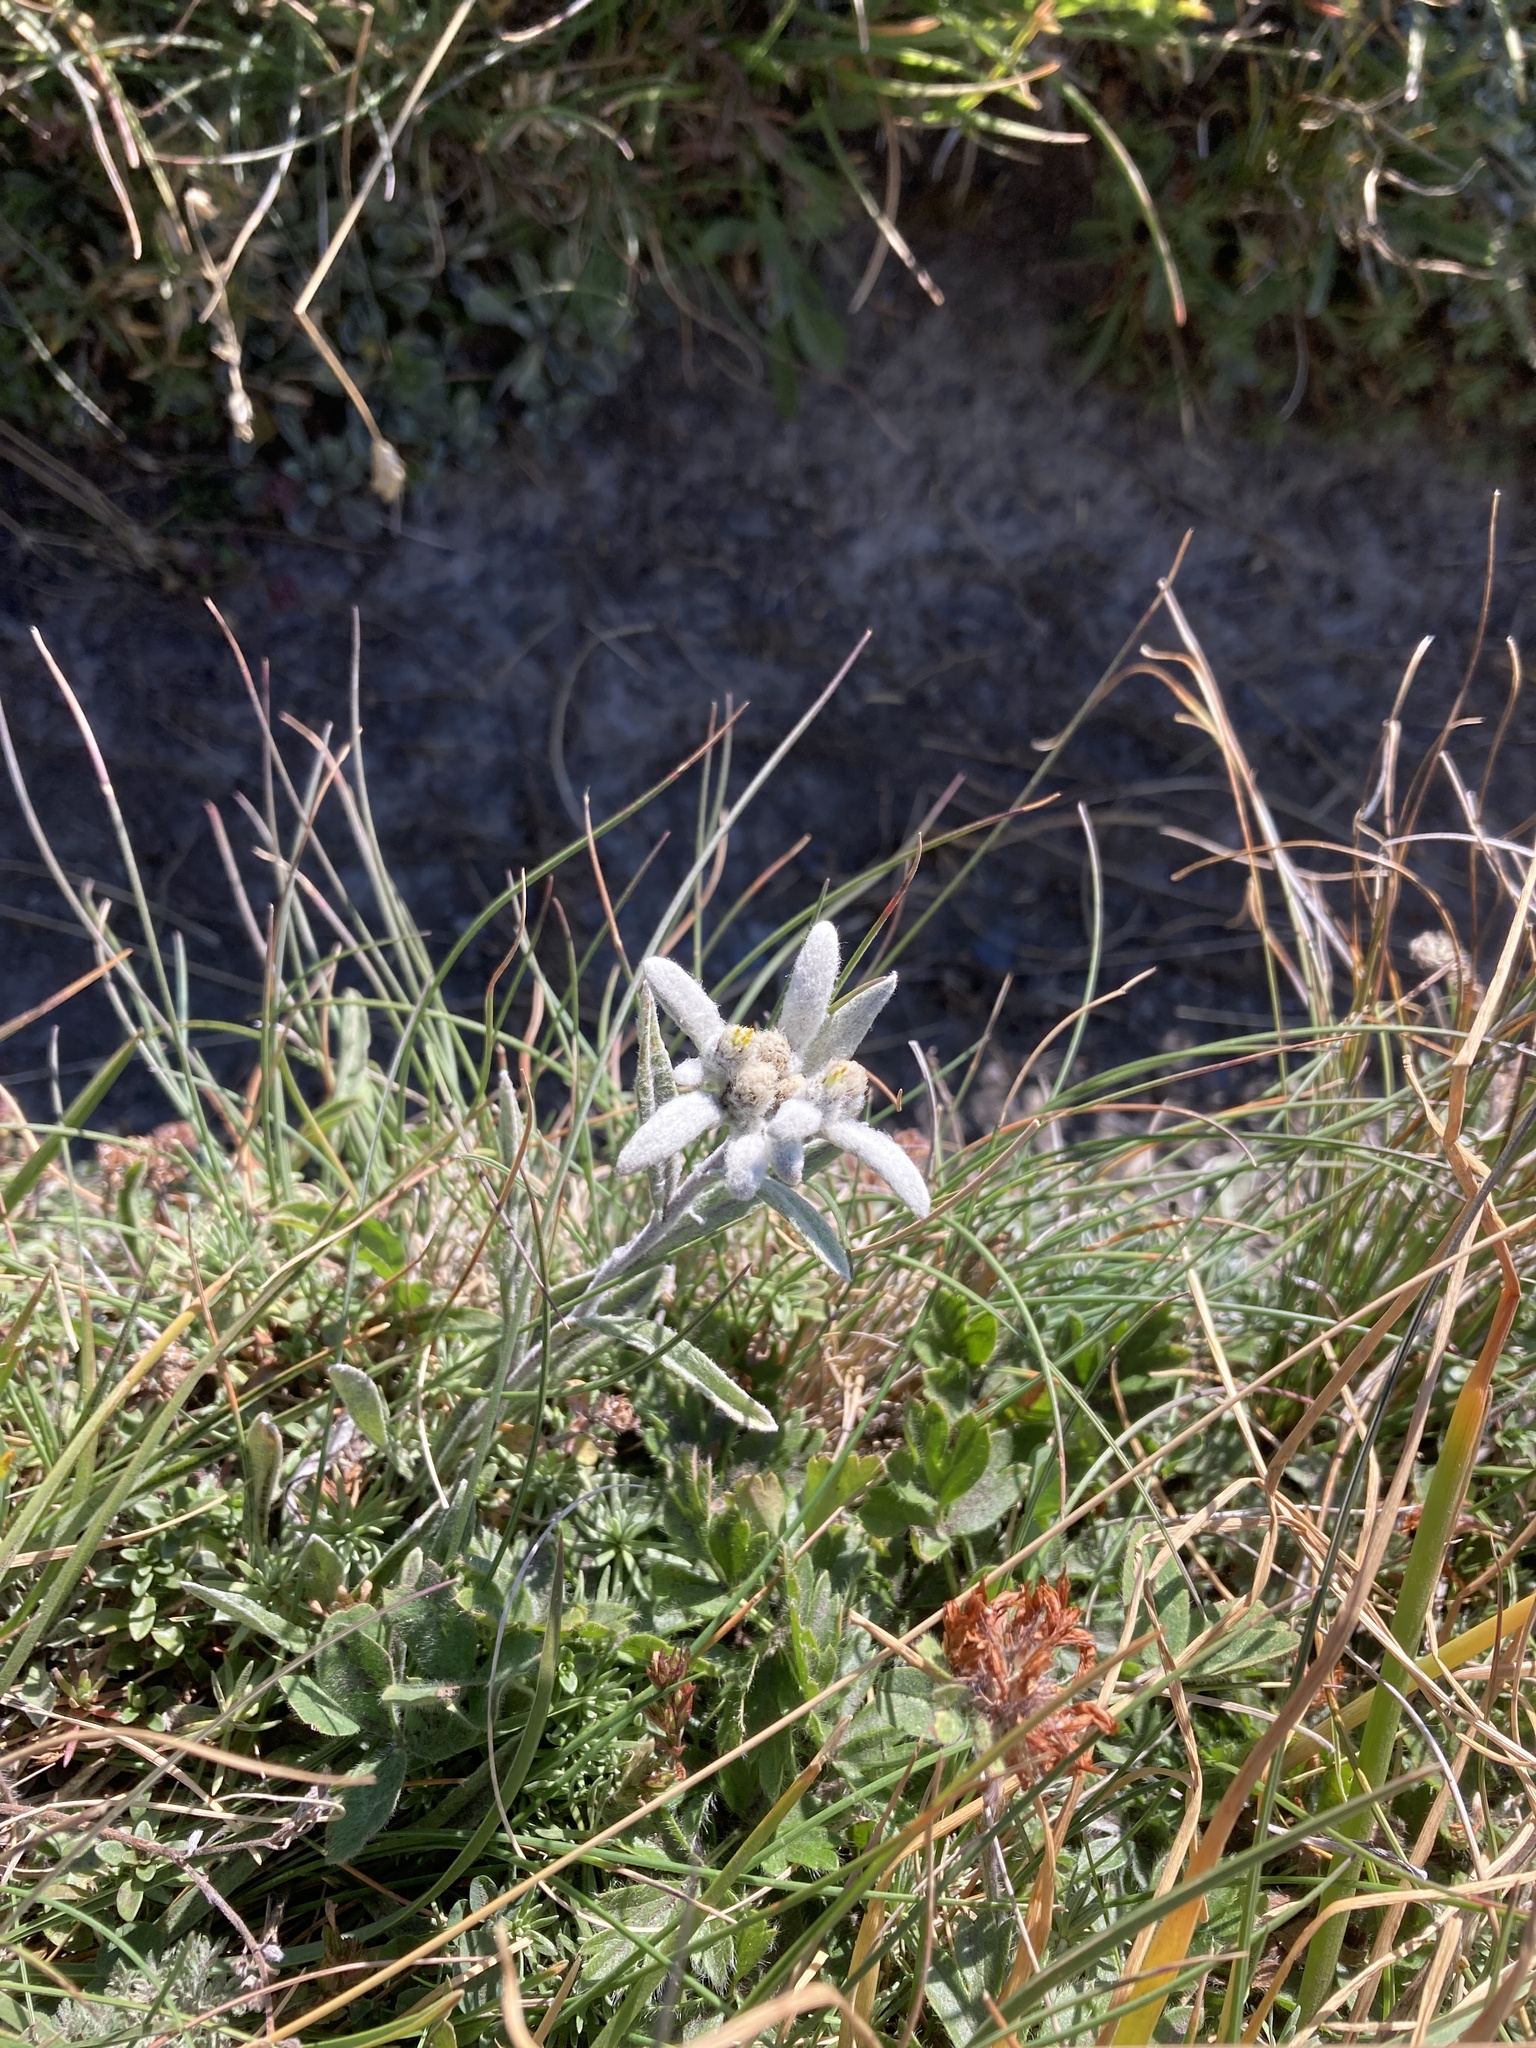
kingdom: Plantae
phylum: Tracheophyta
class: Magnoliopsida
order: Asterales
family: Asteraceae
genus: Leontopodium
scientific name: Leontopodium nivale
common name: Edelweiss
